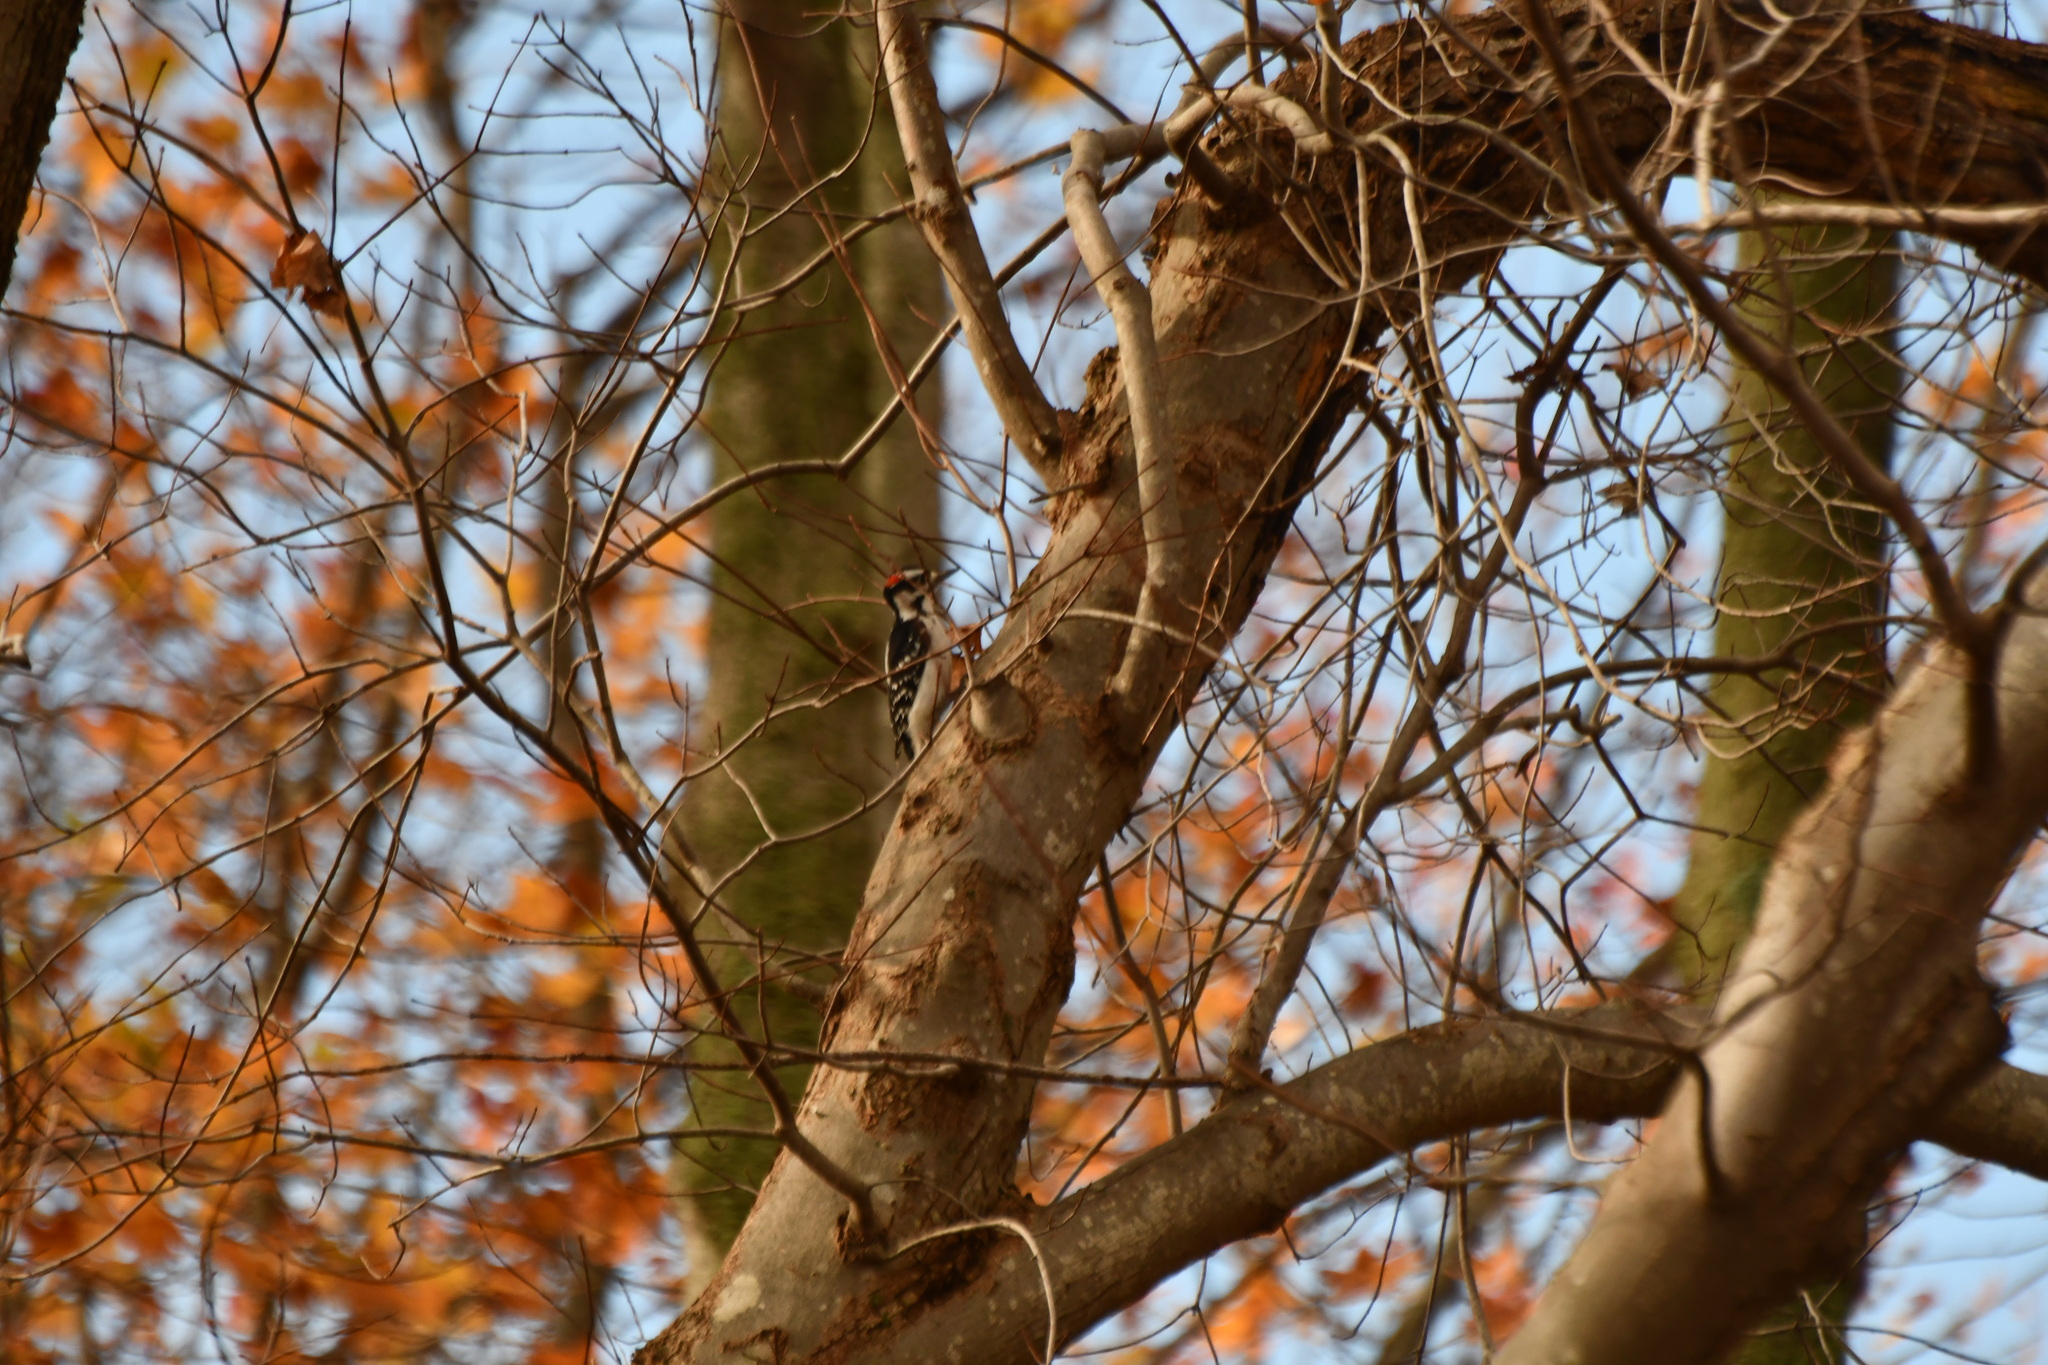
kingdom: Animalia
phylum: Chordata
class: Aves
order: Piciformes
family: Picidae
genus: Leuconotopicus
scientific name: Leuconotopicus villosus
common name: Hairy woodpecker
